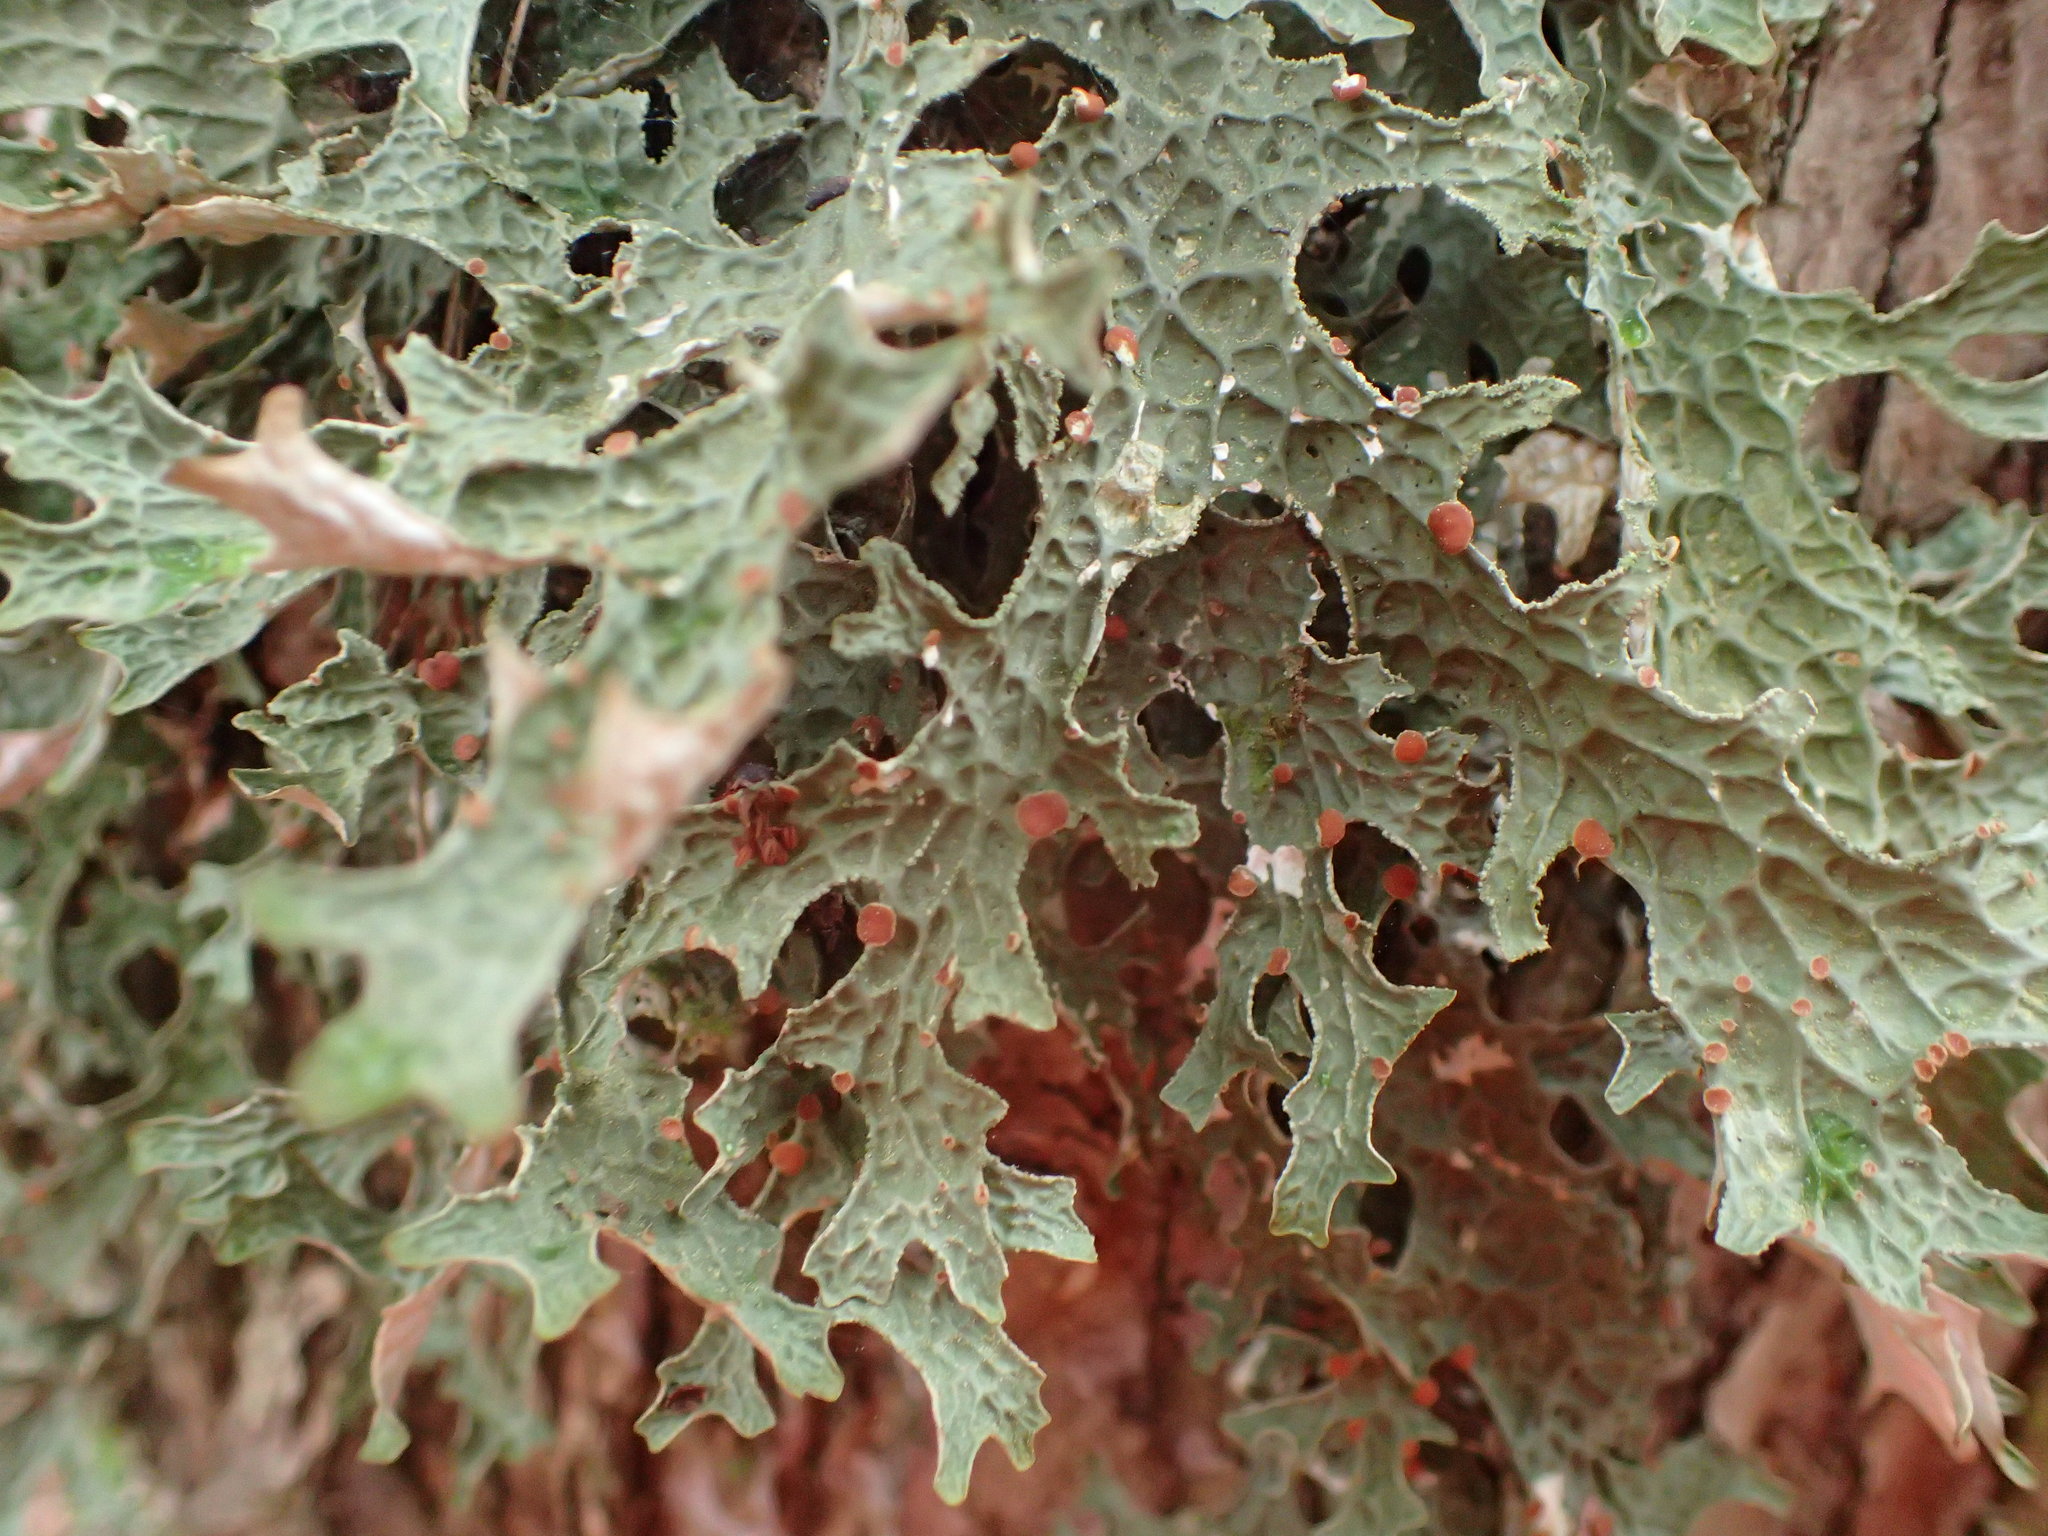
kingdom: Fungi
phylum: Ascomycota
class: Lecanoromycetes
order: Peltigerales
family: Lobariaceae
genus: Lobaria
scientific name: Lobaria pulmonaria
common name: Lungwort
